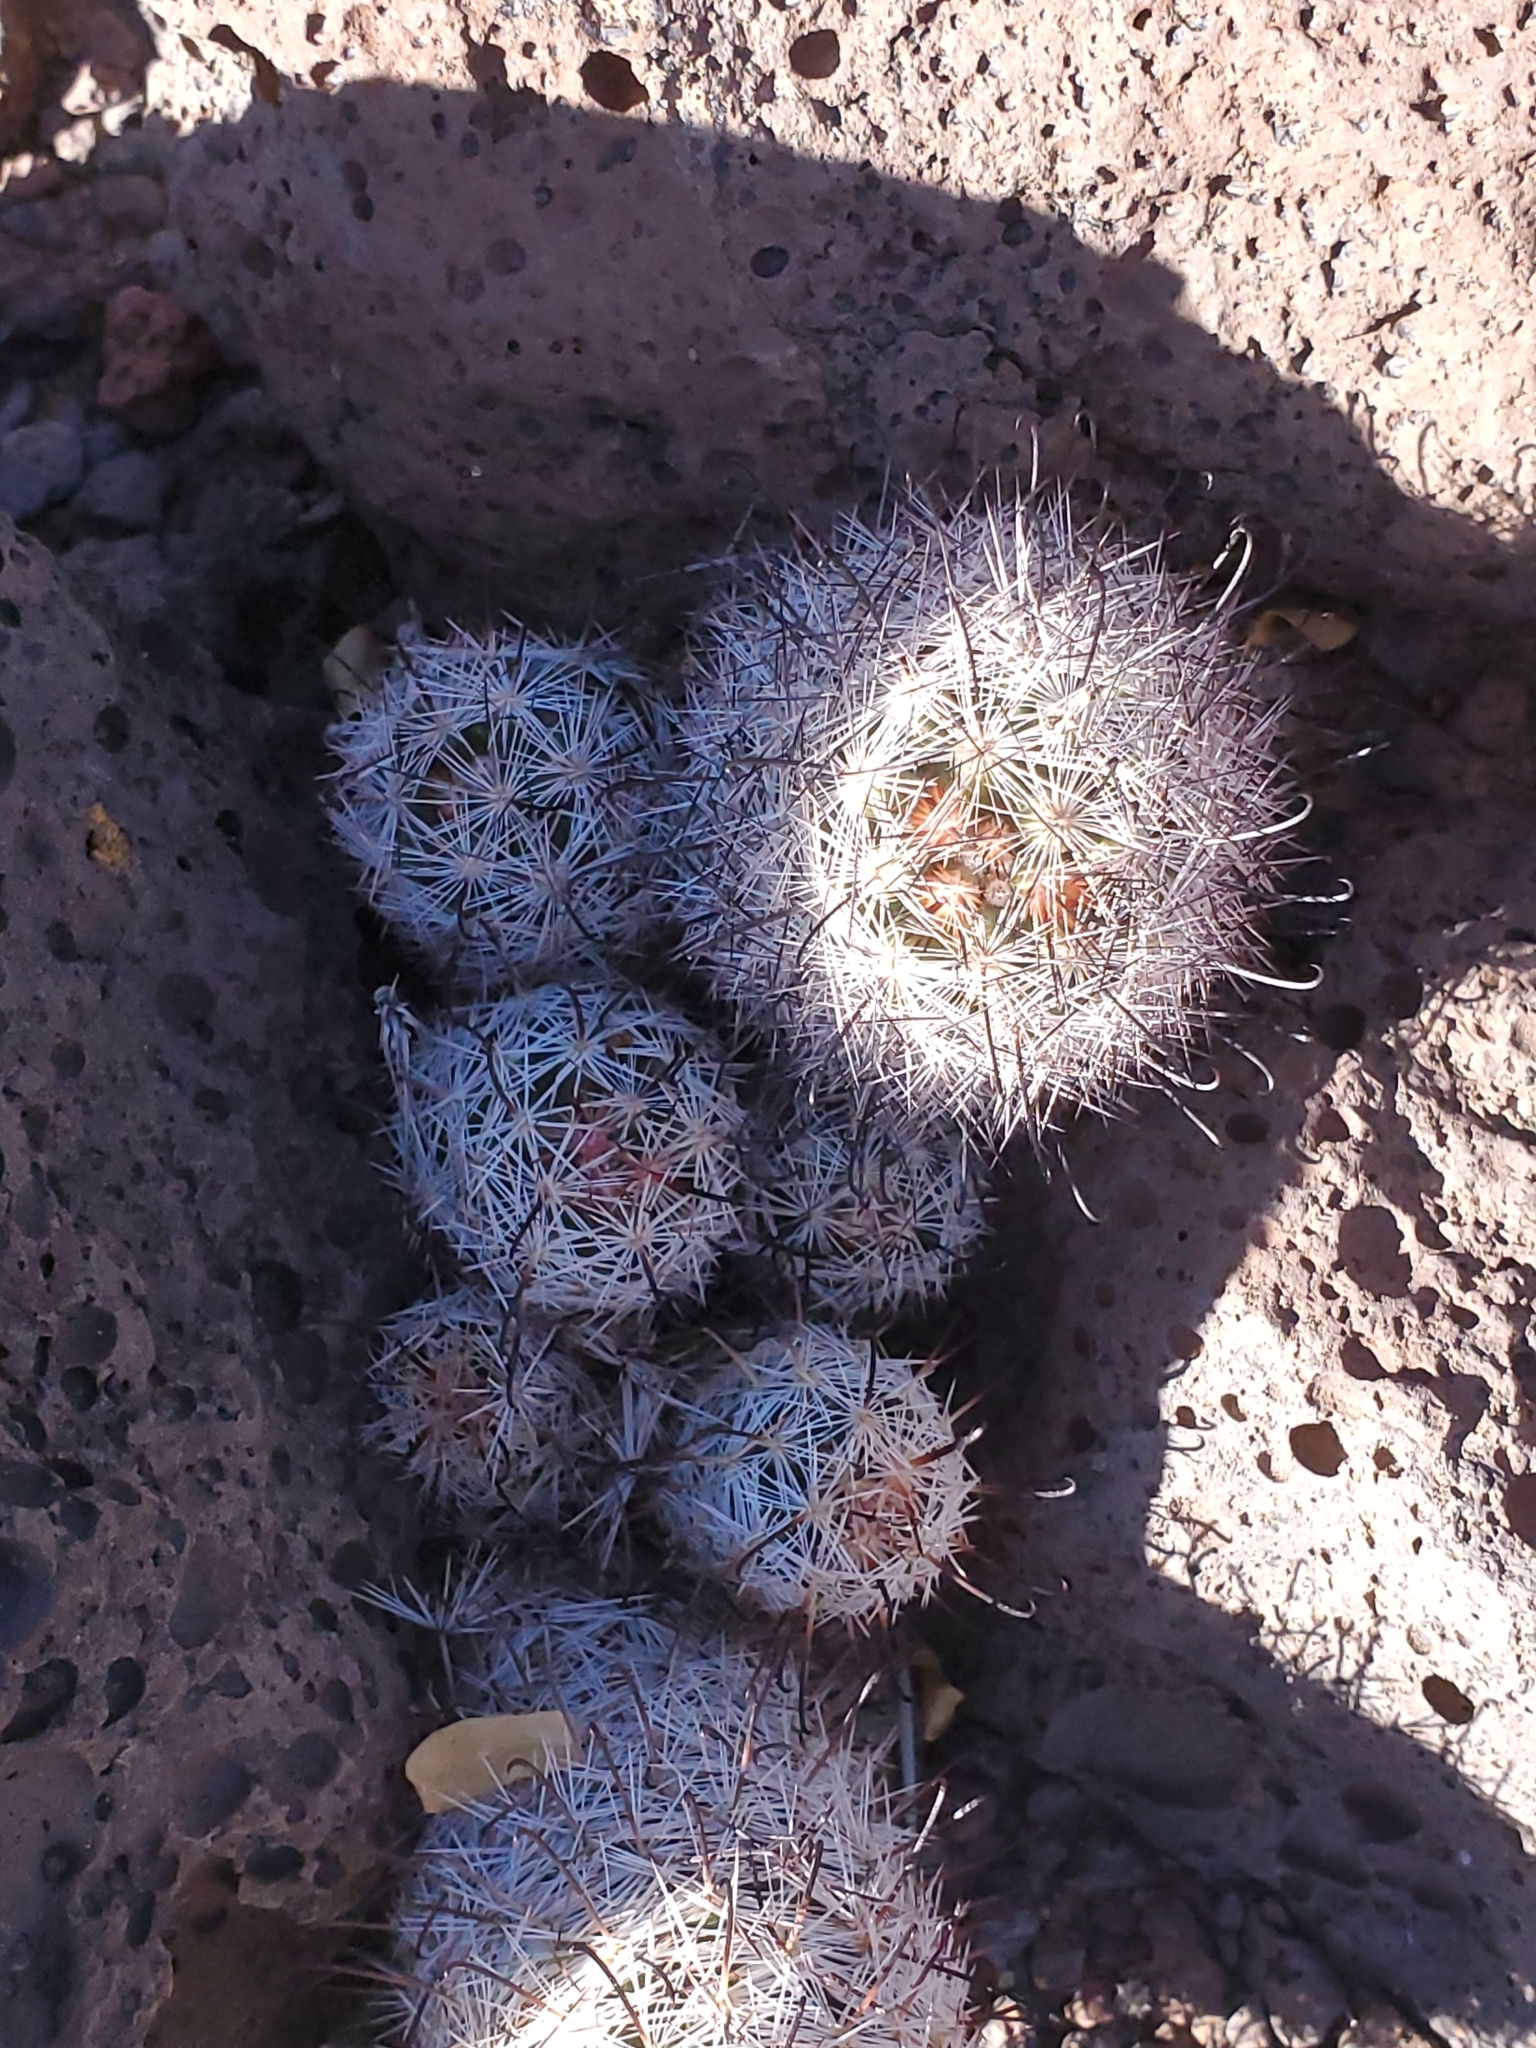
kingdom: Plantae
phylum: Tracheophyta
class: Magnoliopsida
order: Caryophyllales
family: Cactaceae
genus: Cochemiea
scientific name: Cochemiea grahamii
